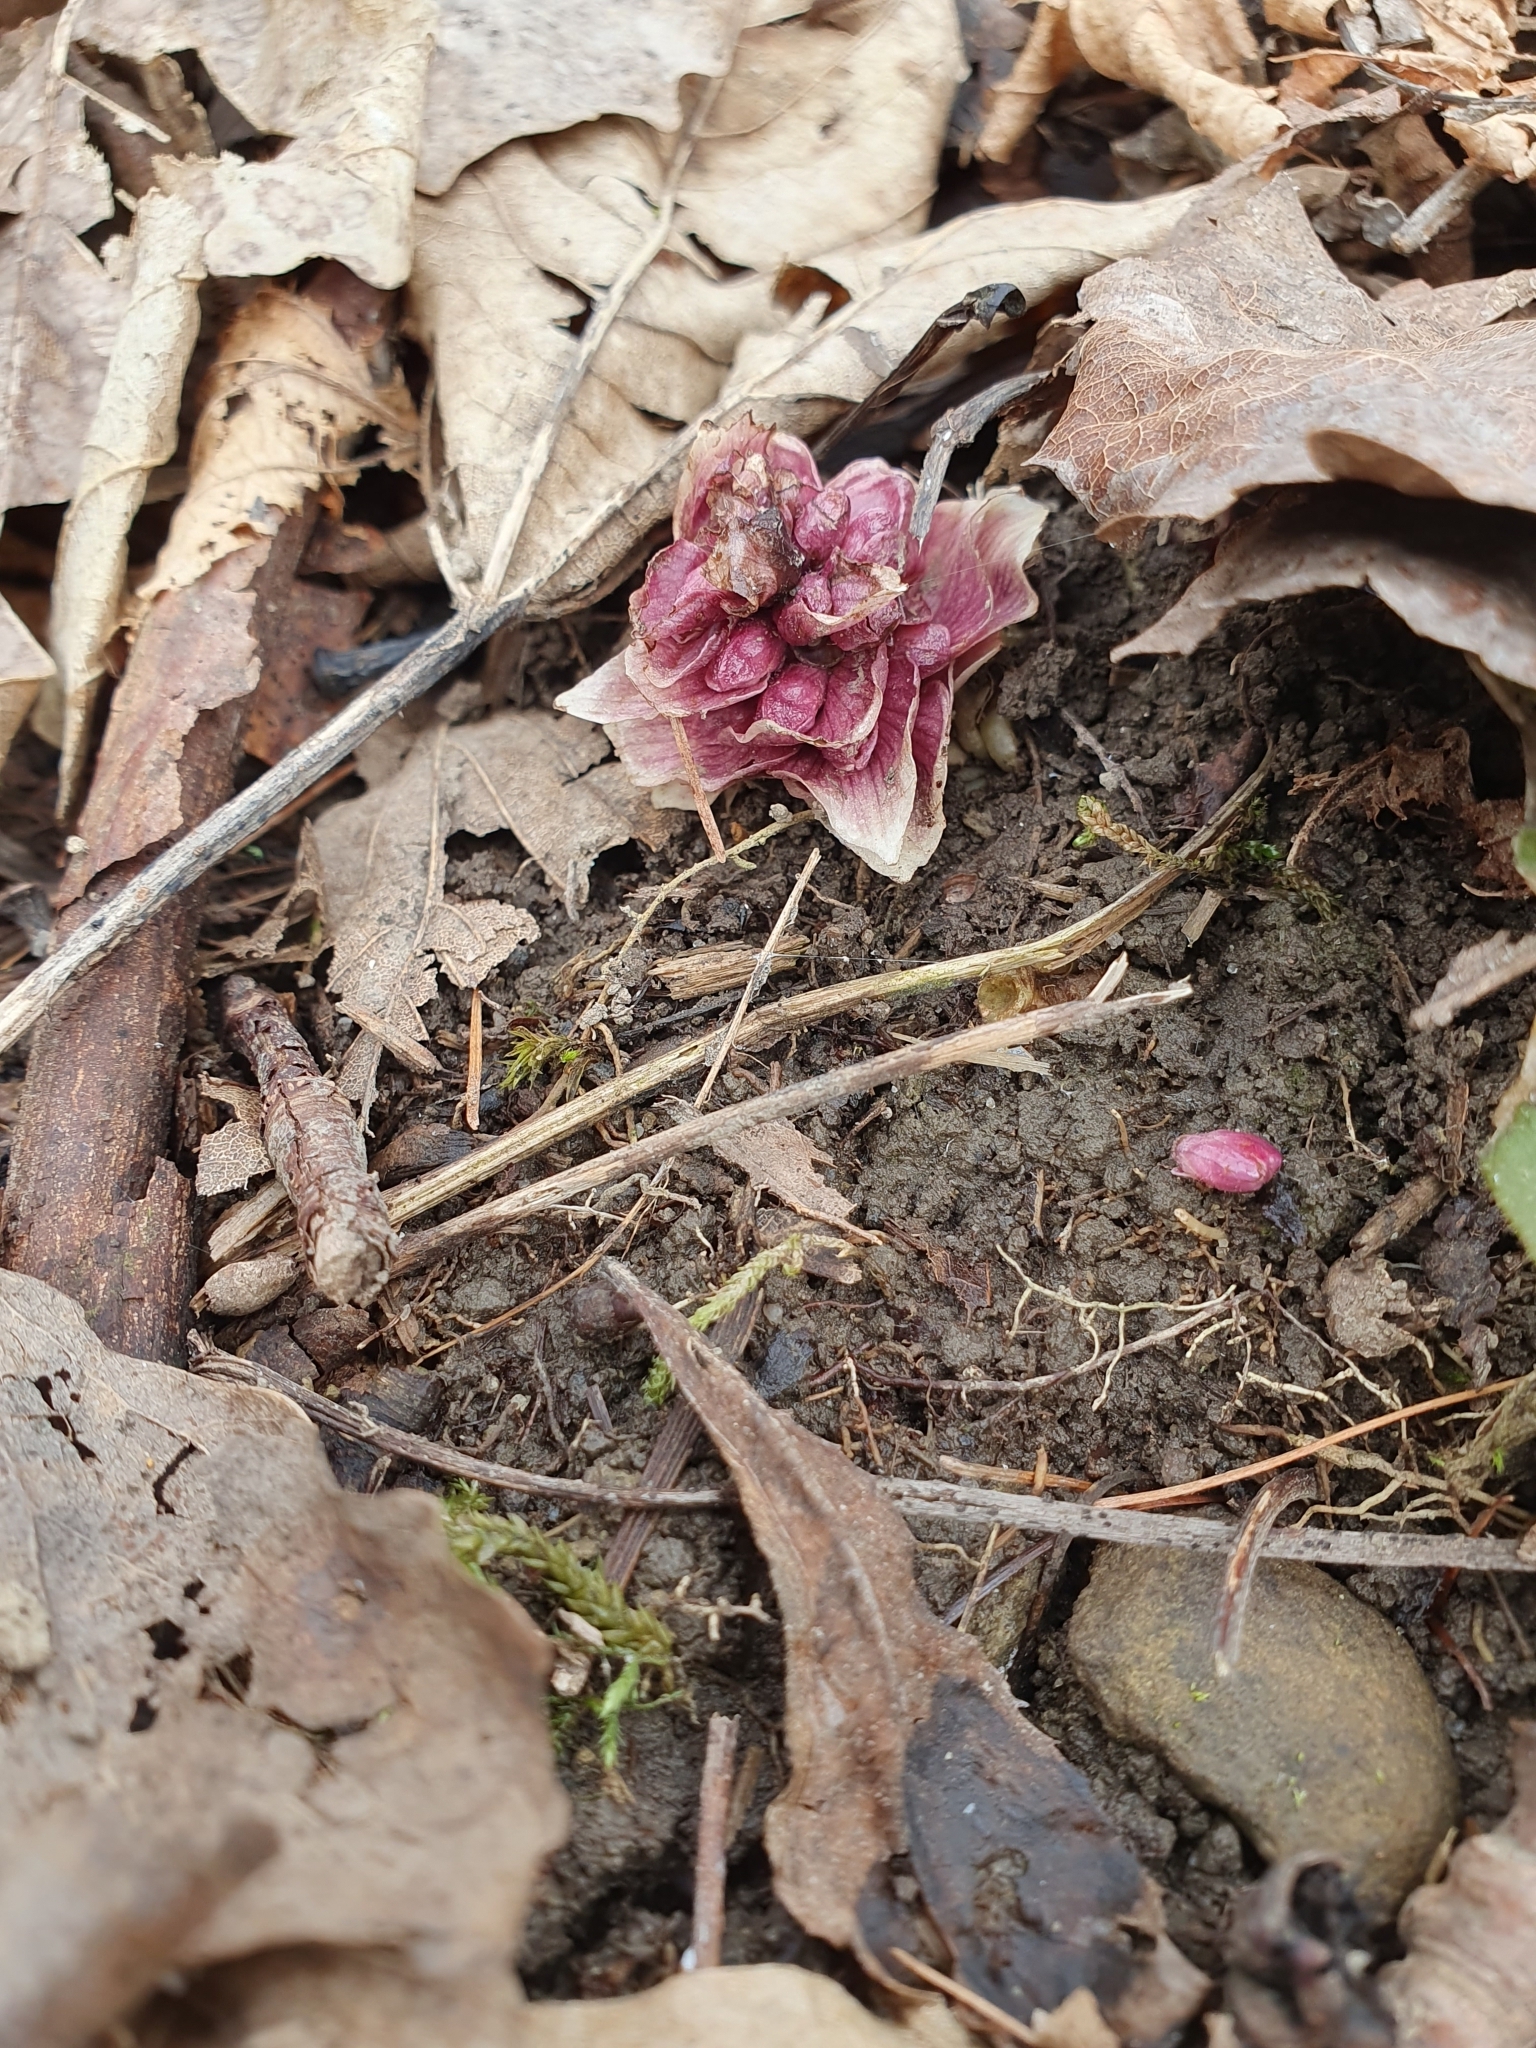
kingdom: Plantae
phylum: Tracheophyta
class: Magnoliopsida
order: Lamiales
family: Orobanchaceae
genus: Lathraea
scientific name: Lathraea squamaria
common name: Toothwort
